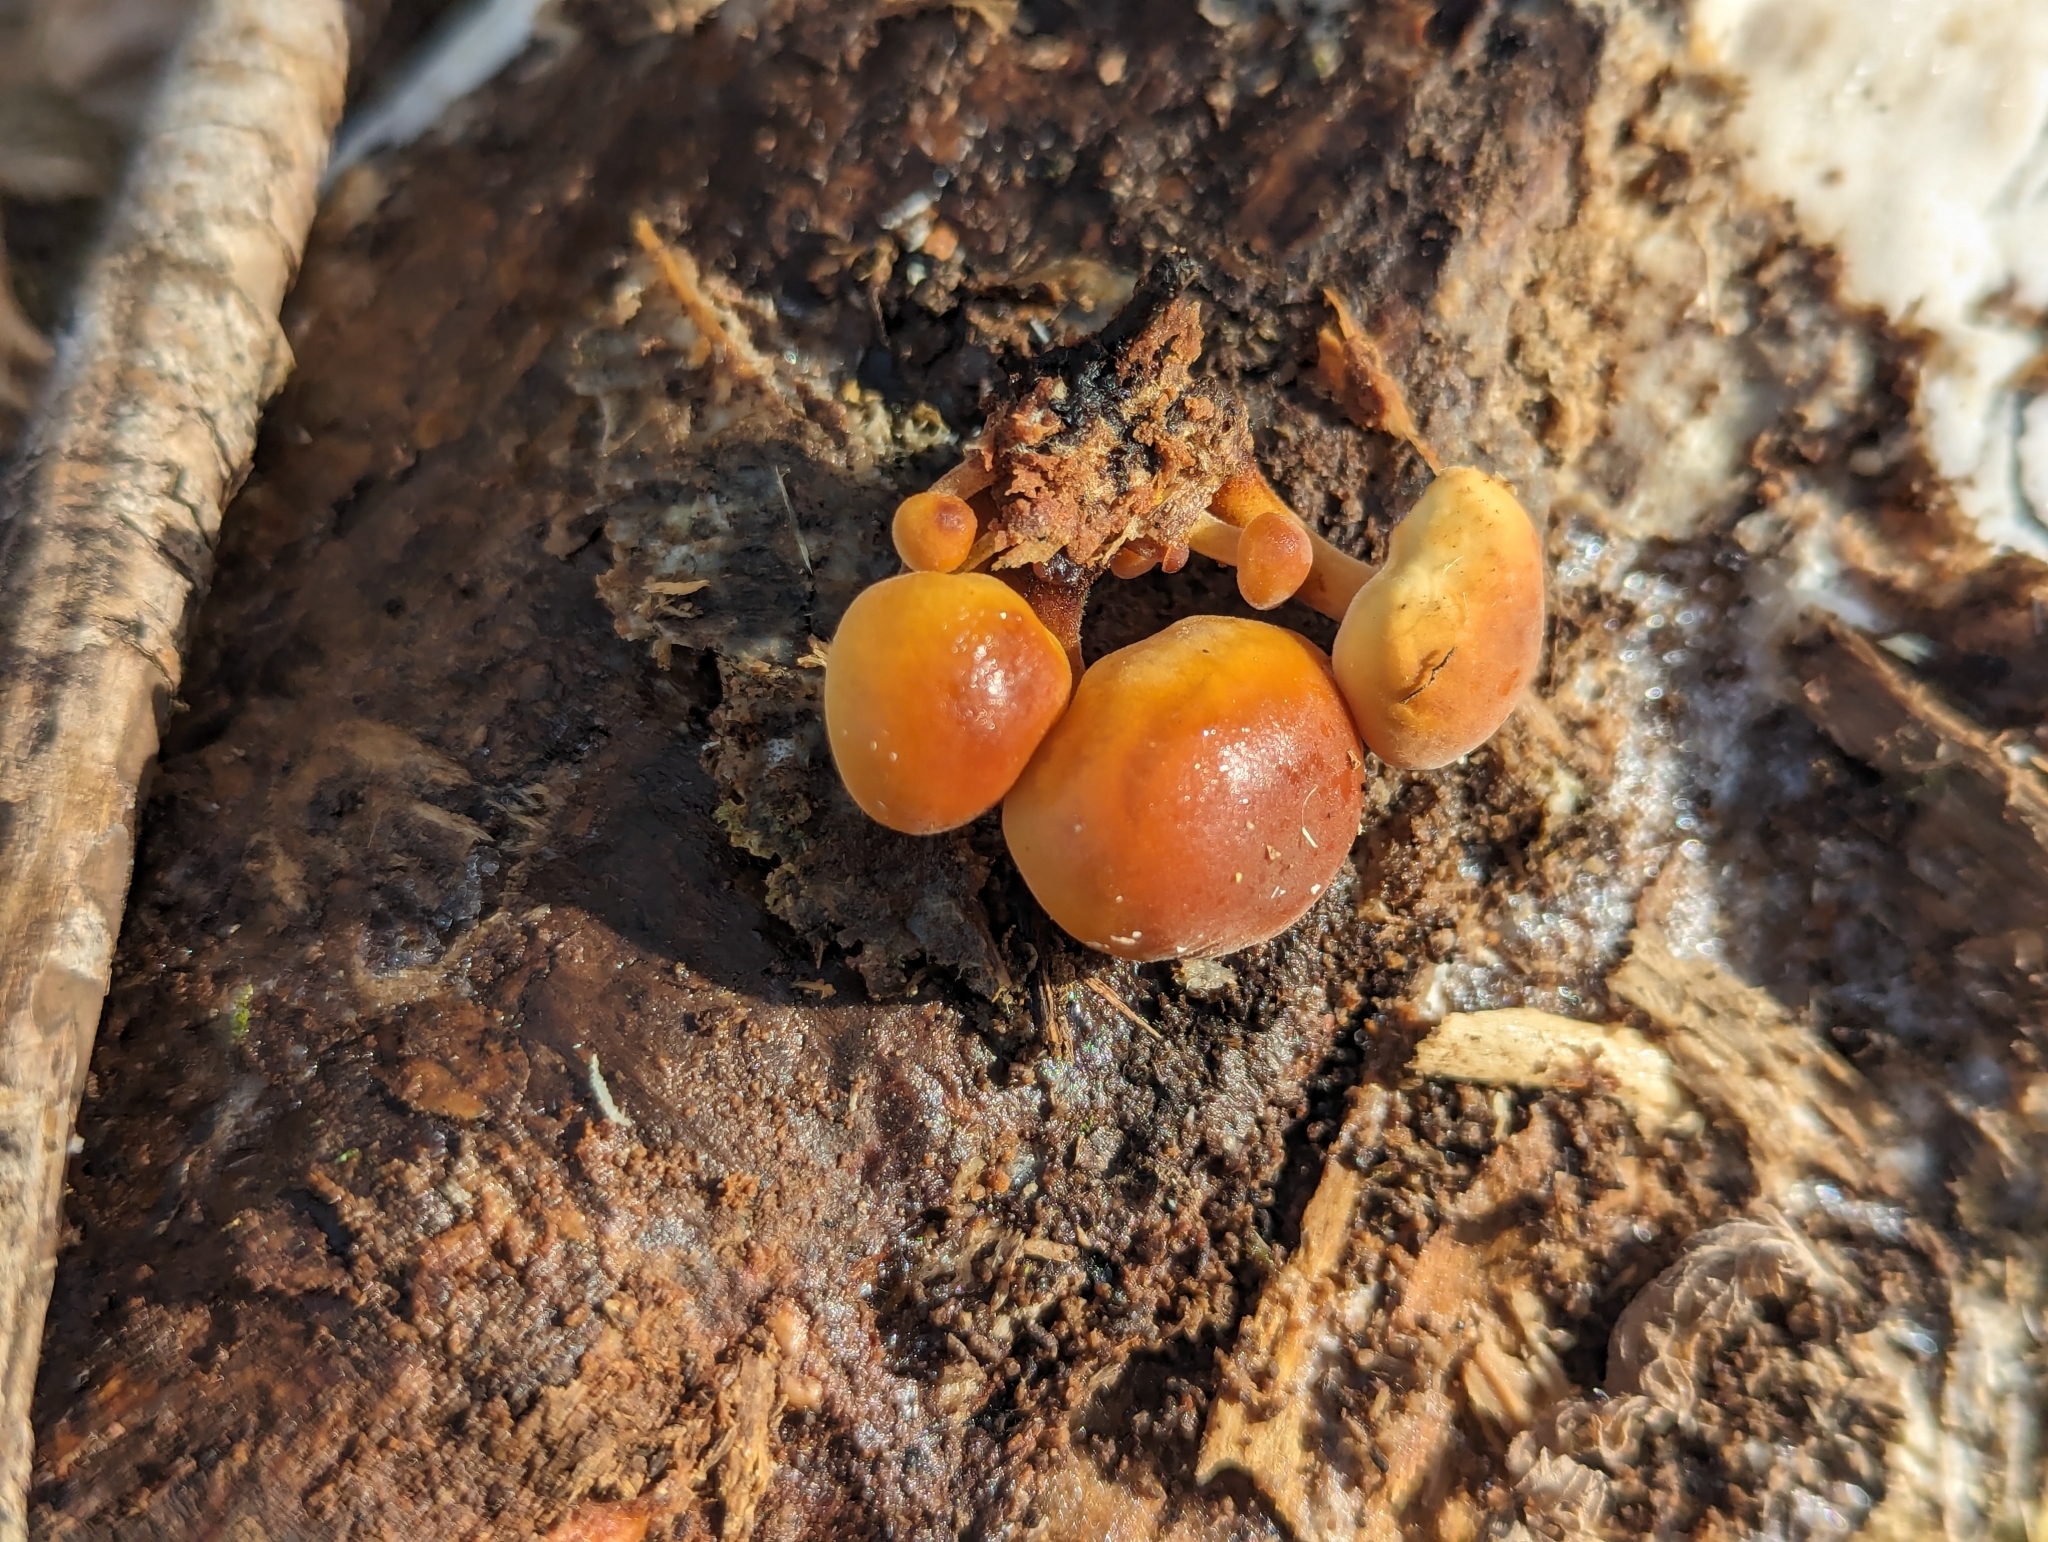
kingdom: Fungi
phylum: Basidiomycota
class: Agaricomycetes
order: Agaricales
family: Physalacriaceae
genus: Flammulina
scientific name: Flammulina velutipes
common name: Velvet shank
